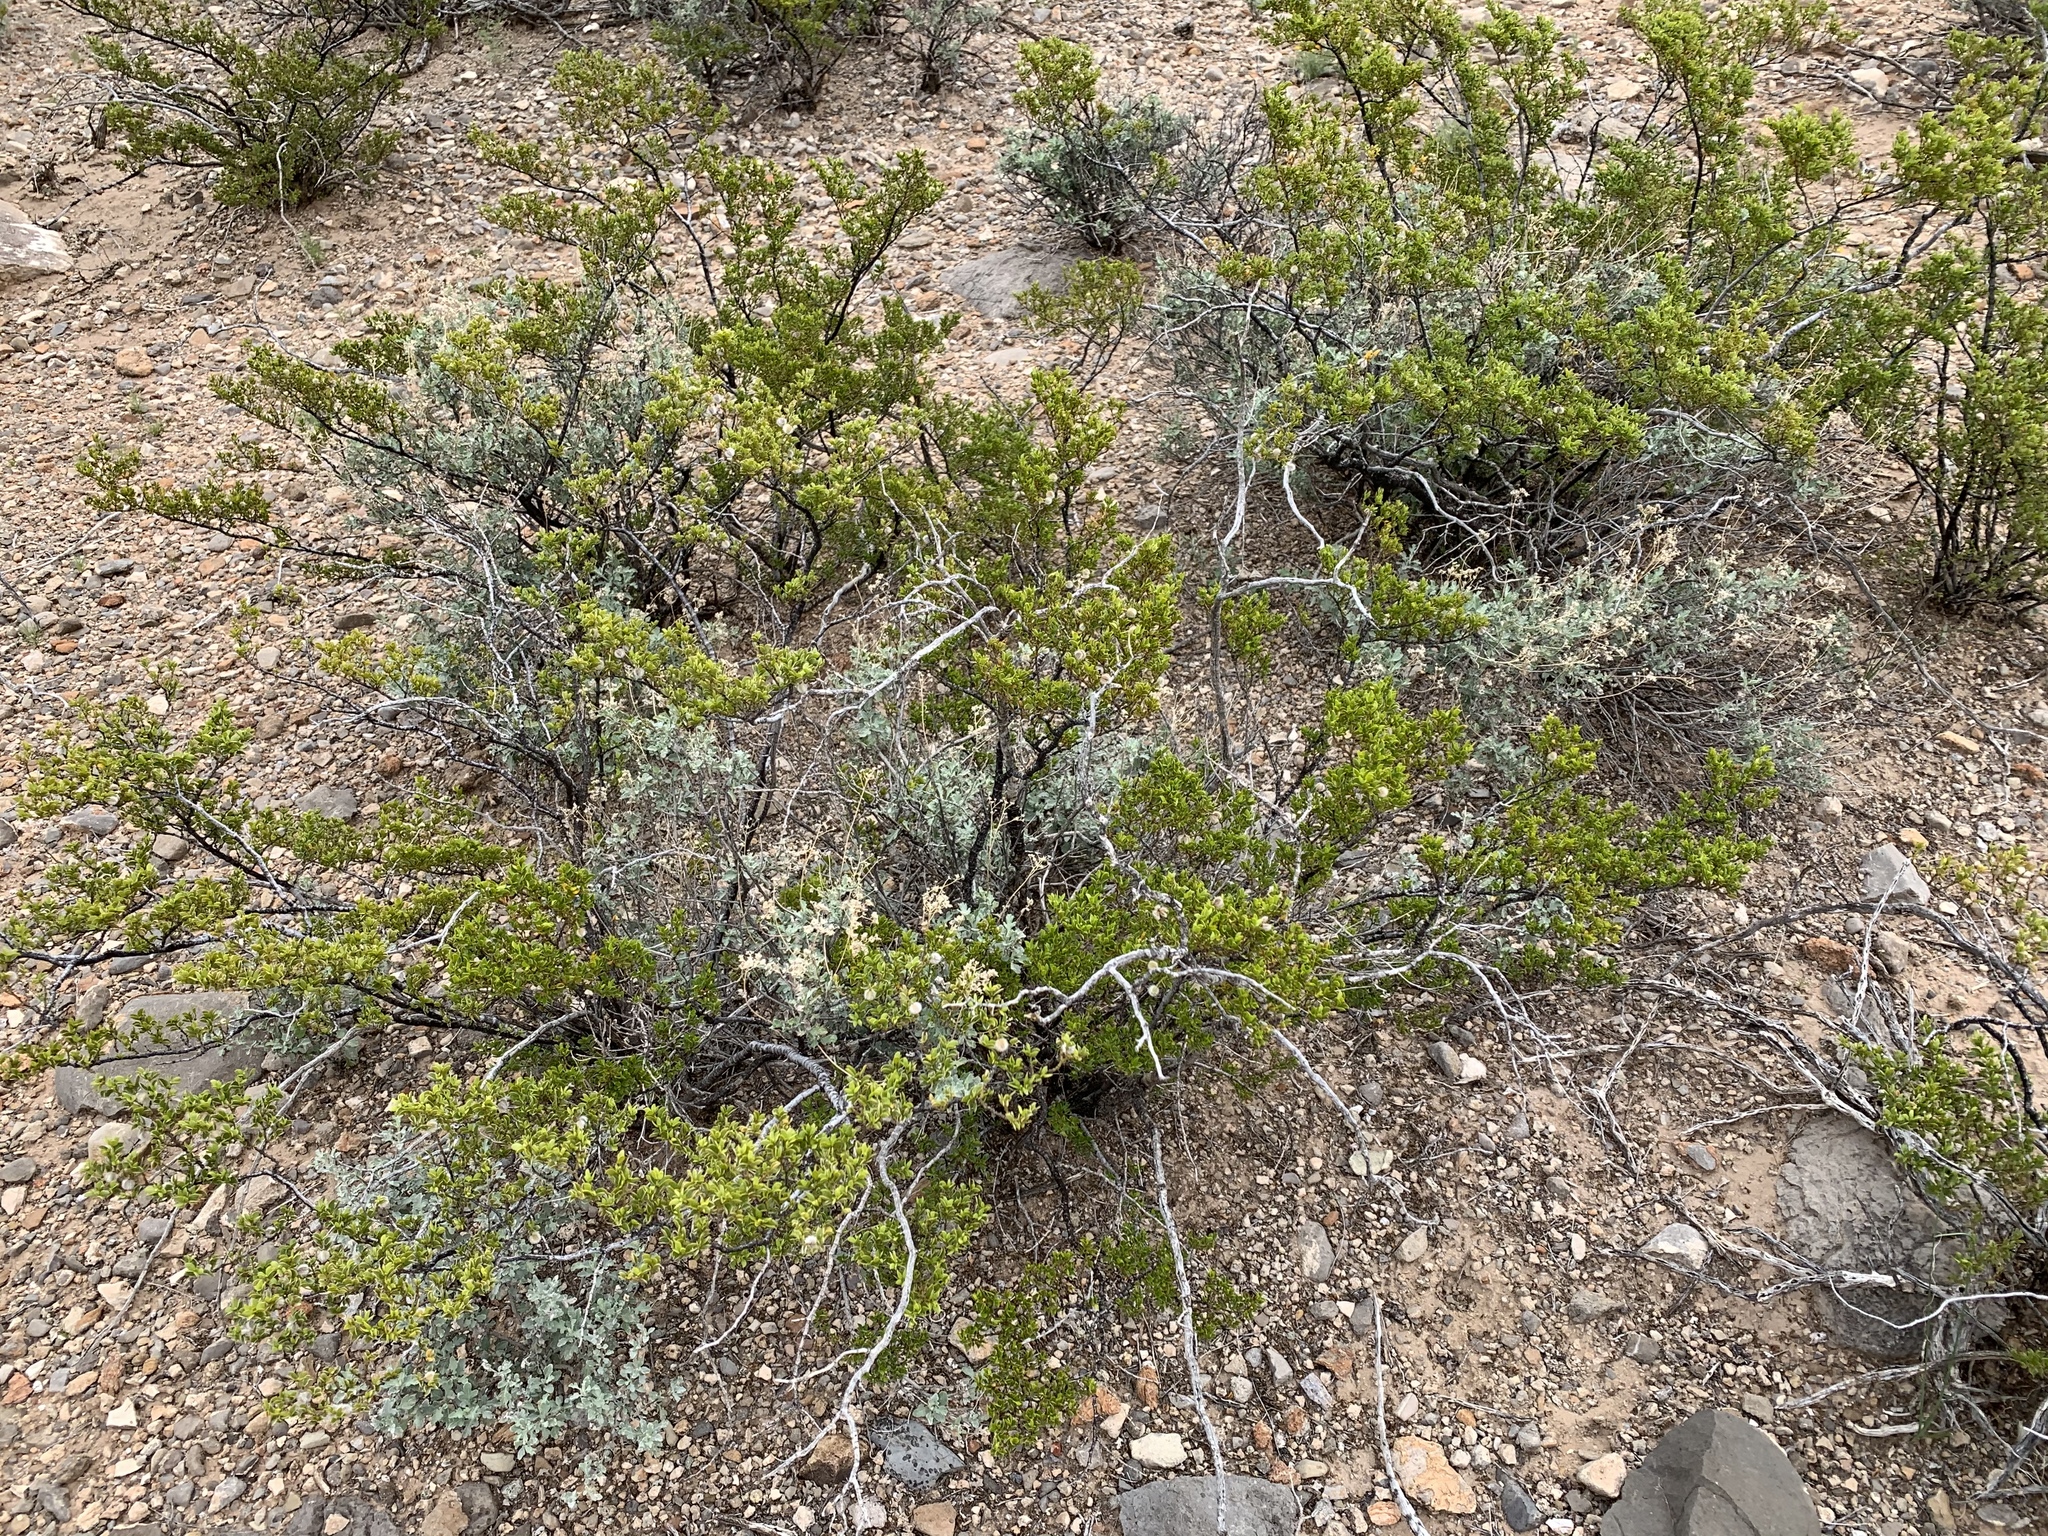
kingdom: Plantae
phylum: Tracheophyta
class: Magnoliopsida
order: Zygophyllales
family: Zygophyllaceae
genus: Larrea
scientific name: Larrea tridentata
